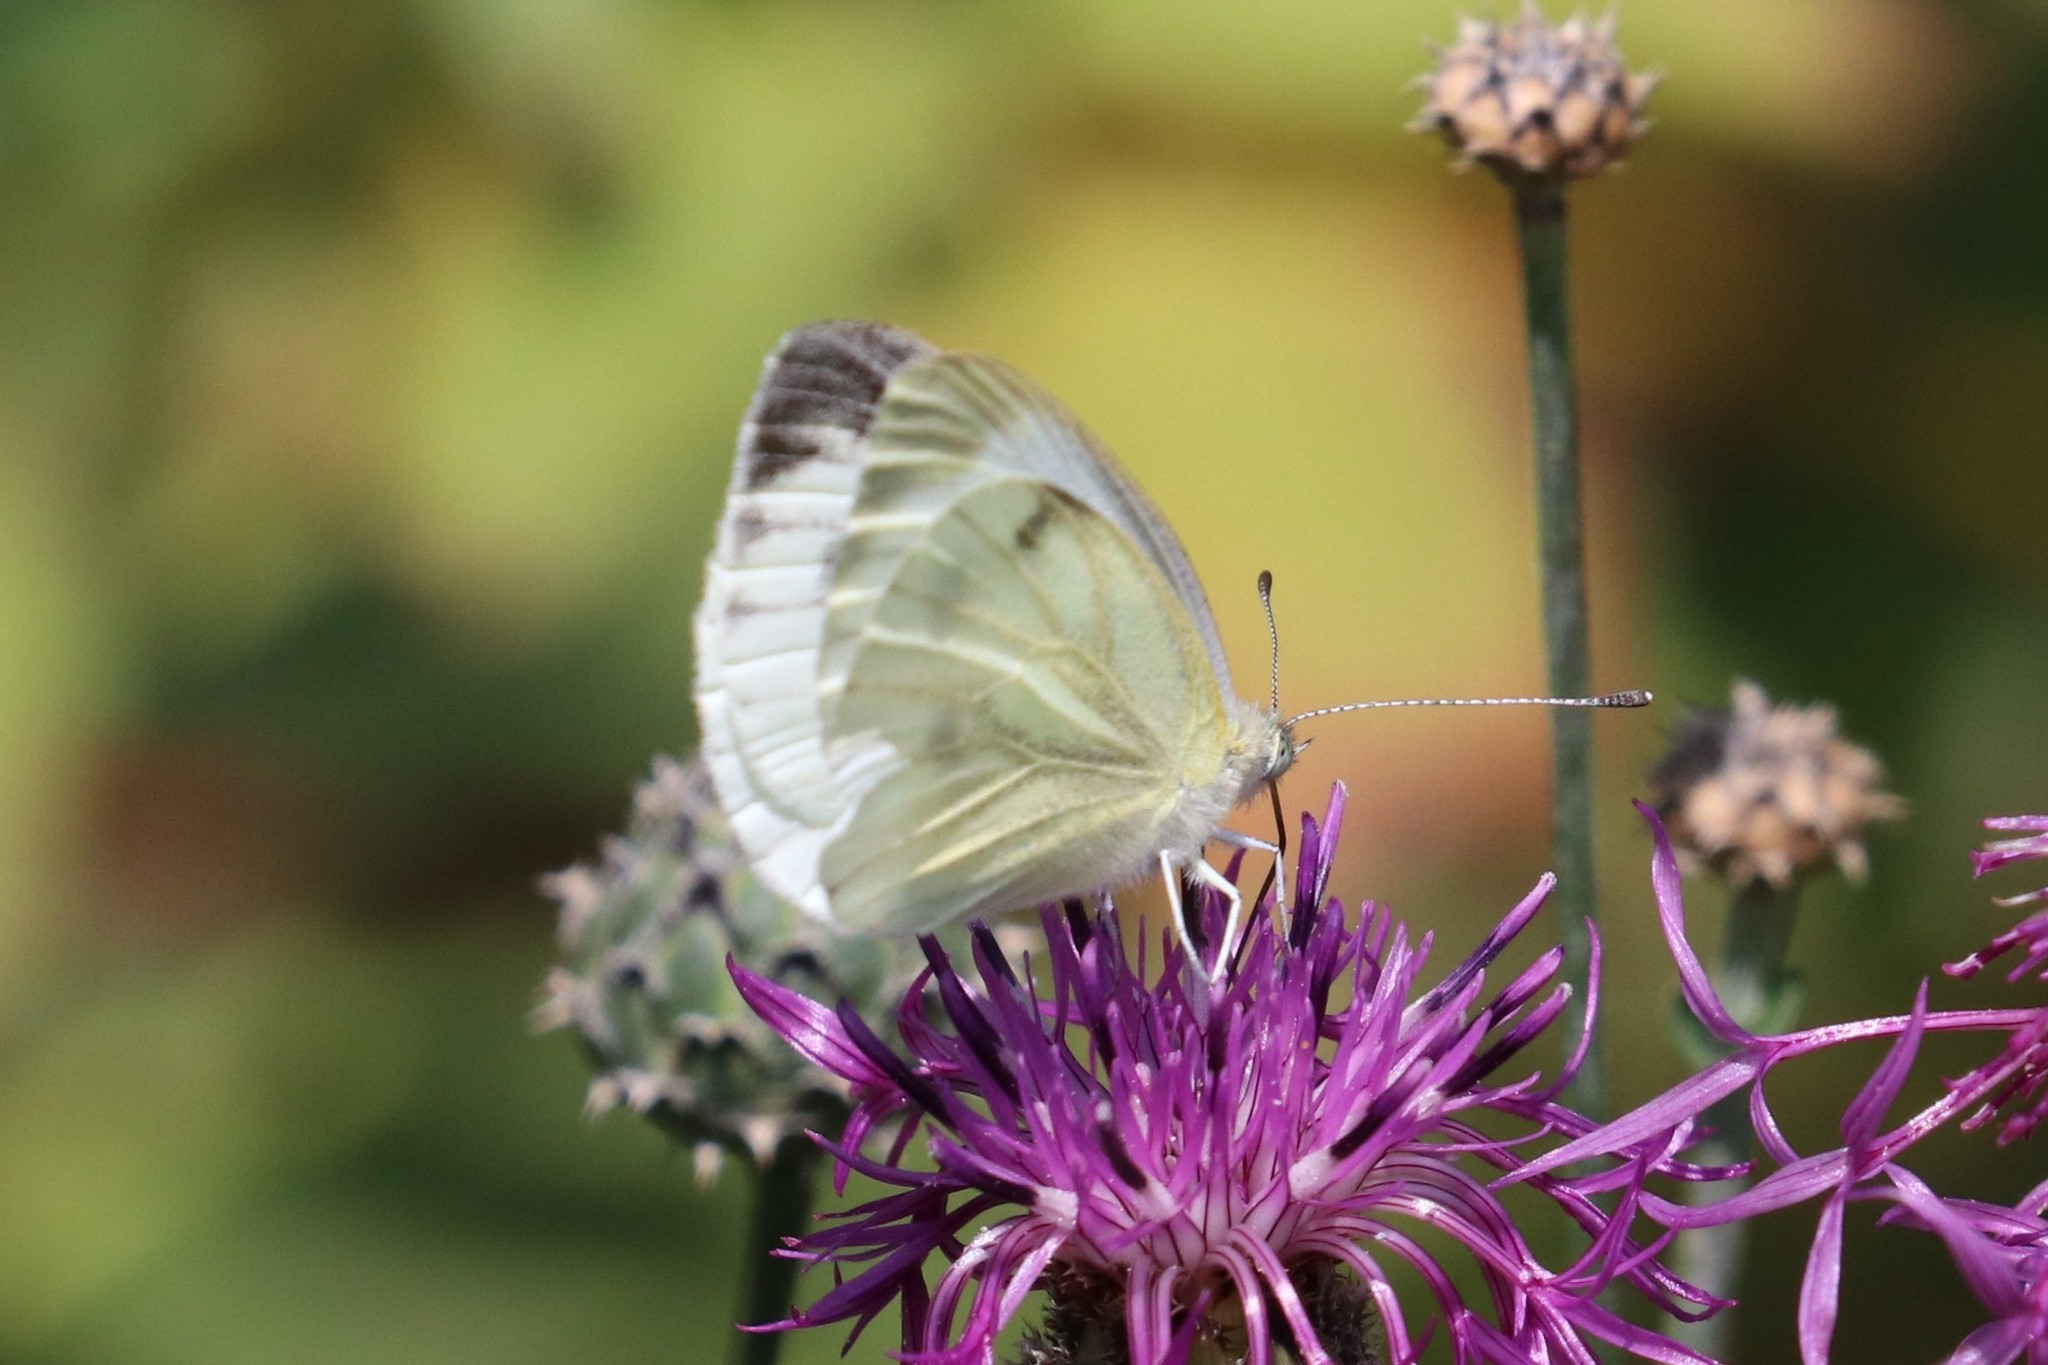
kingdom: Animalia
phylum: Arthropoda
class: Insecta
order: Lepidoptera
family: Pieridae
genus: Pieris
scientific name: Pieris napi
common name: Green-veined white
